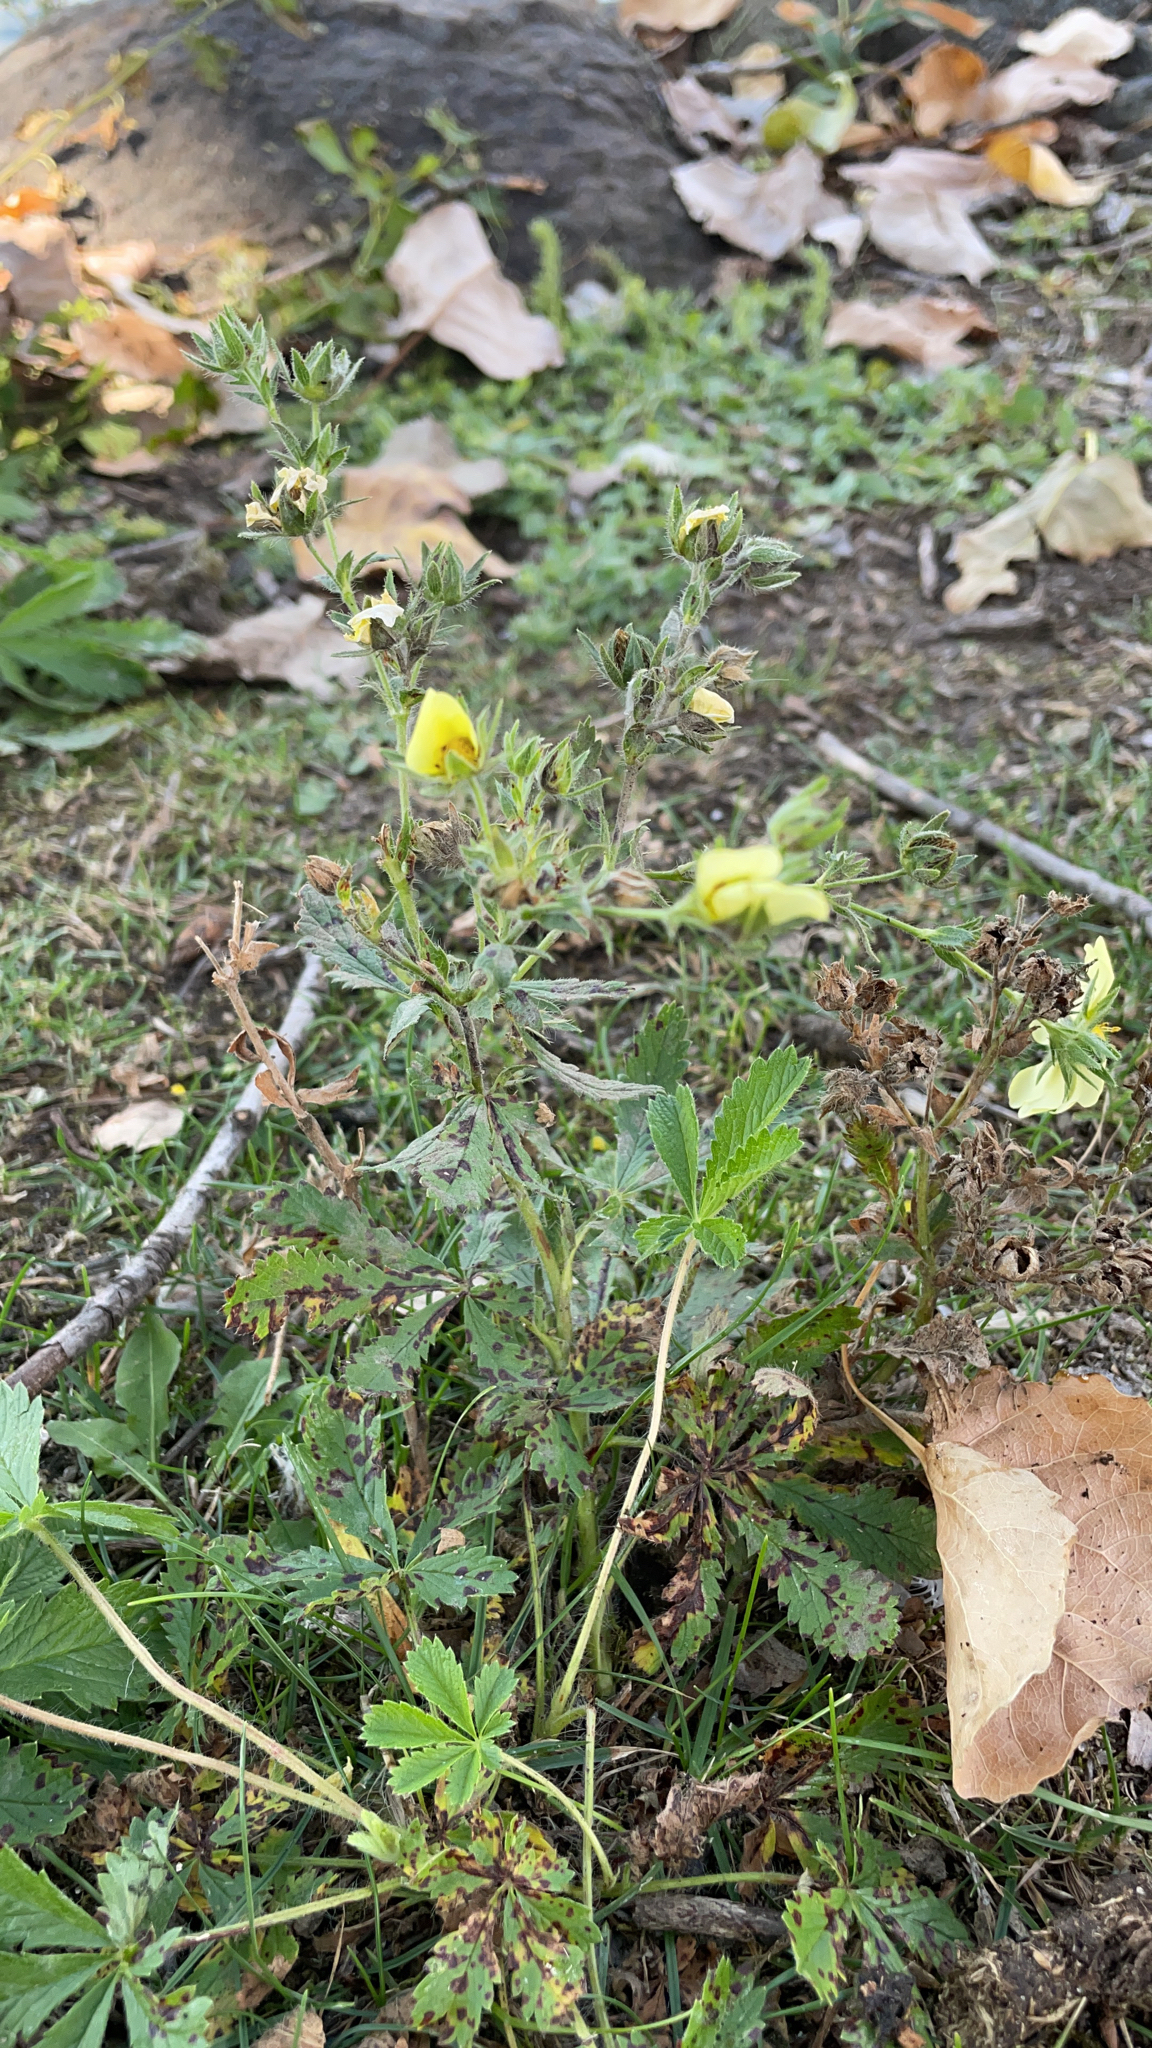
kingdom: Plantae
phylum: Tracheophyta
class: Magnoliopsida
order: Rosales
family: Rosaceae
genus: Potentilla
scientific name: Potentilla recta
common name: Sulphur cinquefoil
